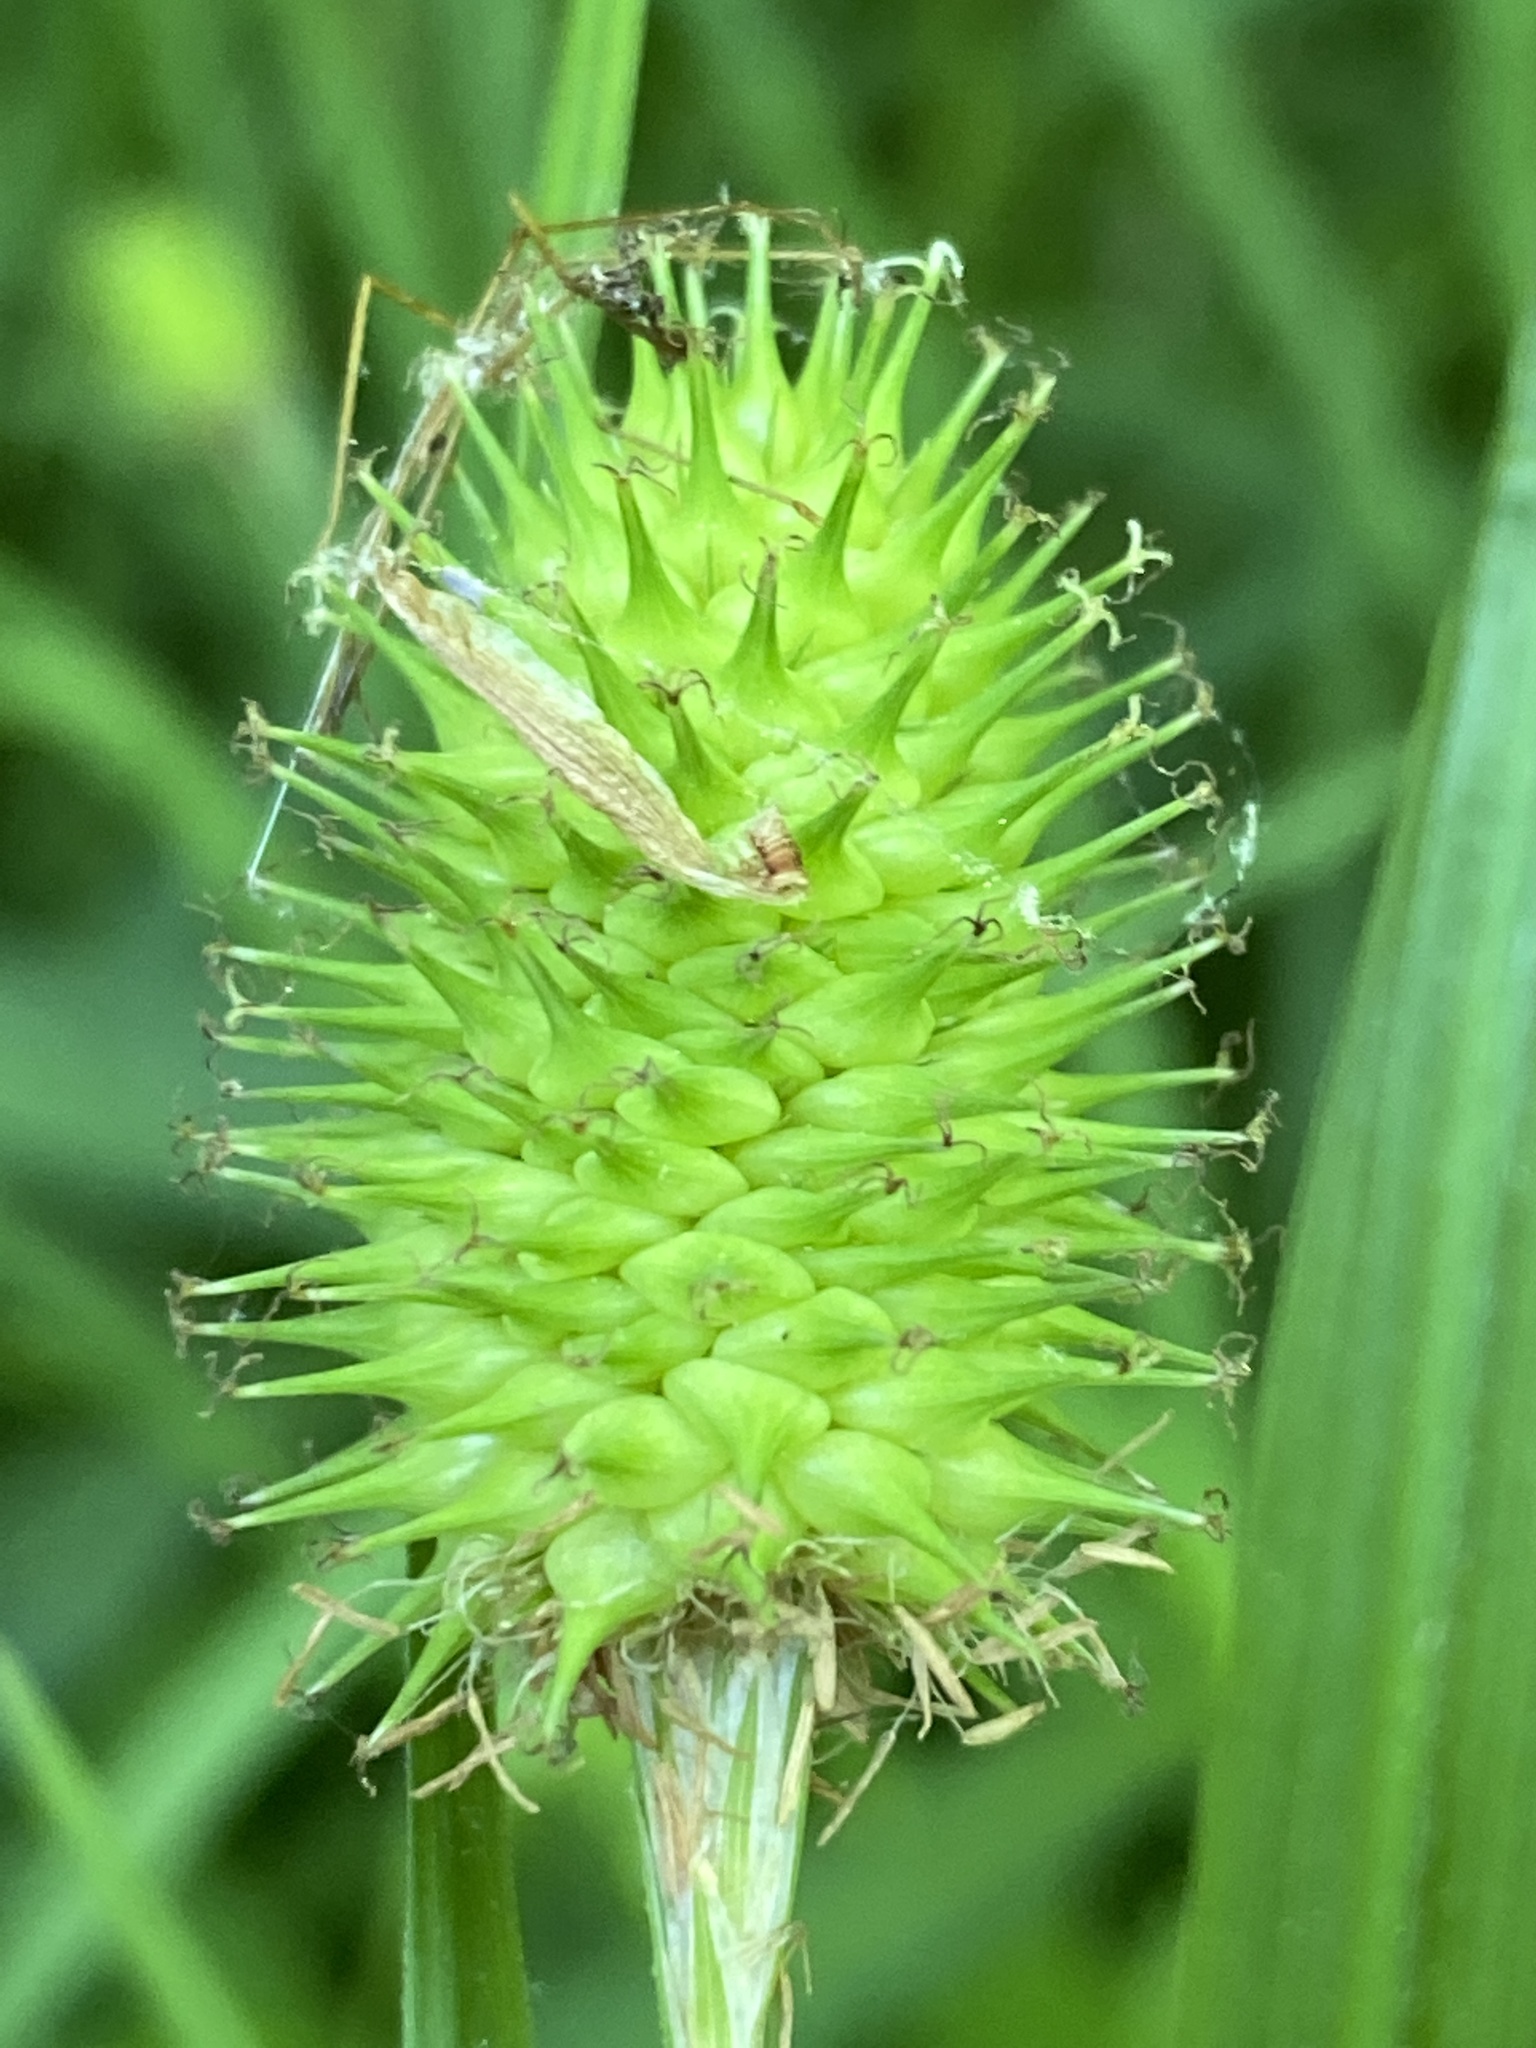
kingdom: Plantae
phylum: Tracheophyta
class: Liliopsida
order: Poales
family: Cyperaceae
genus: Carex
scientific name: Carex squarrosa
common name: Narrow-leaved cattail sedge
